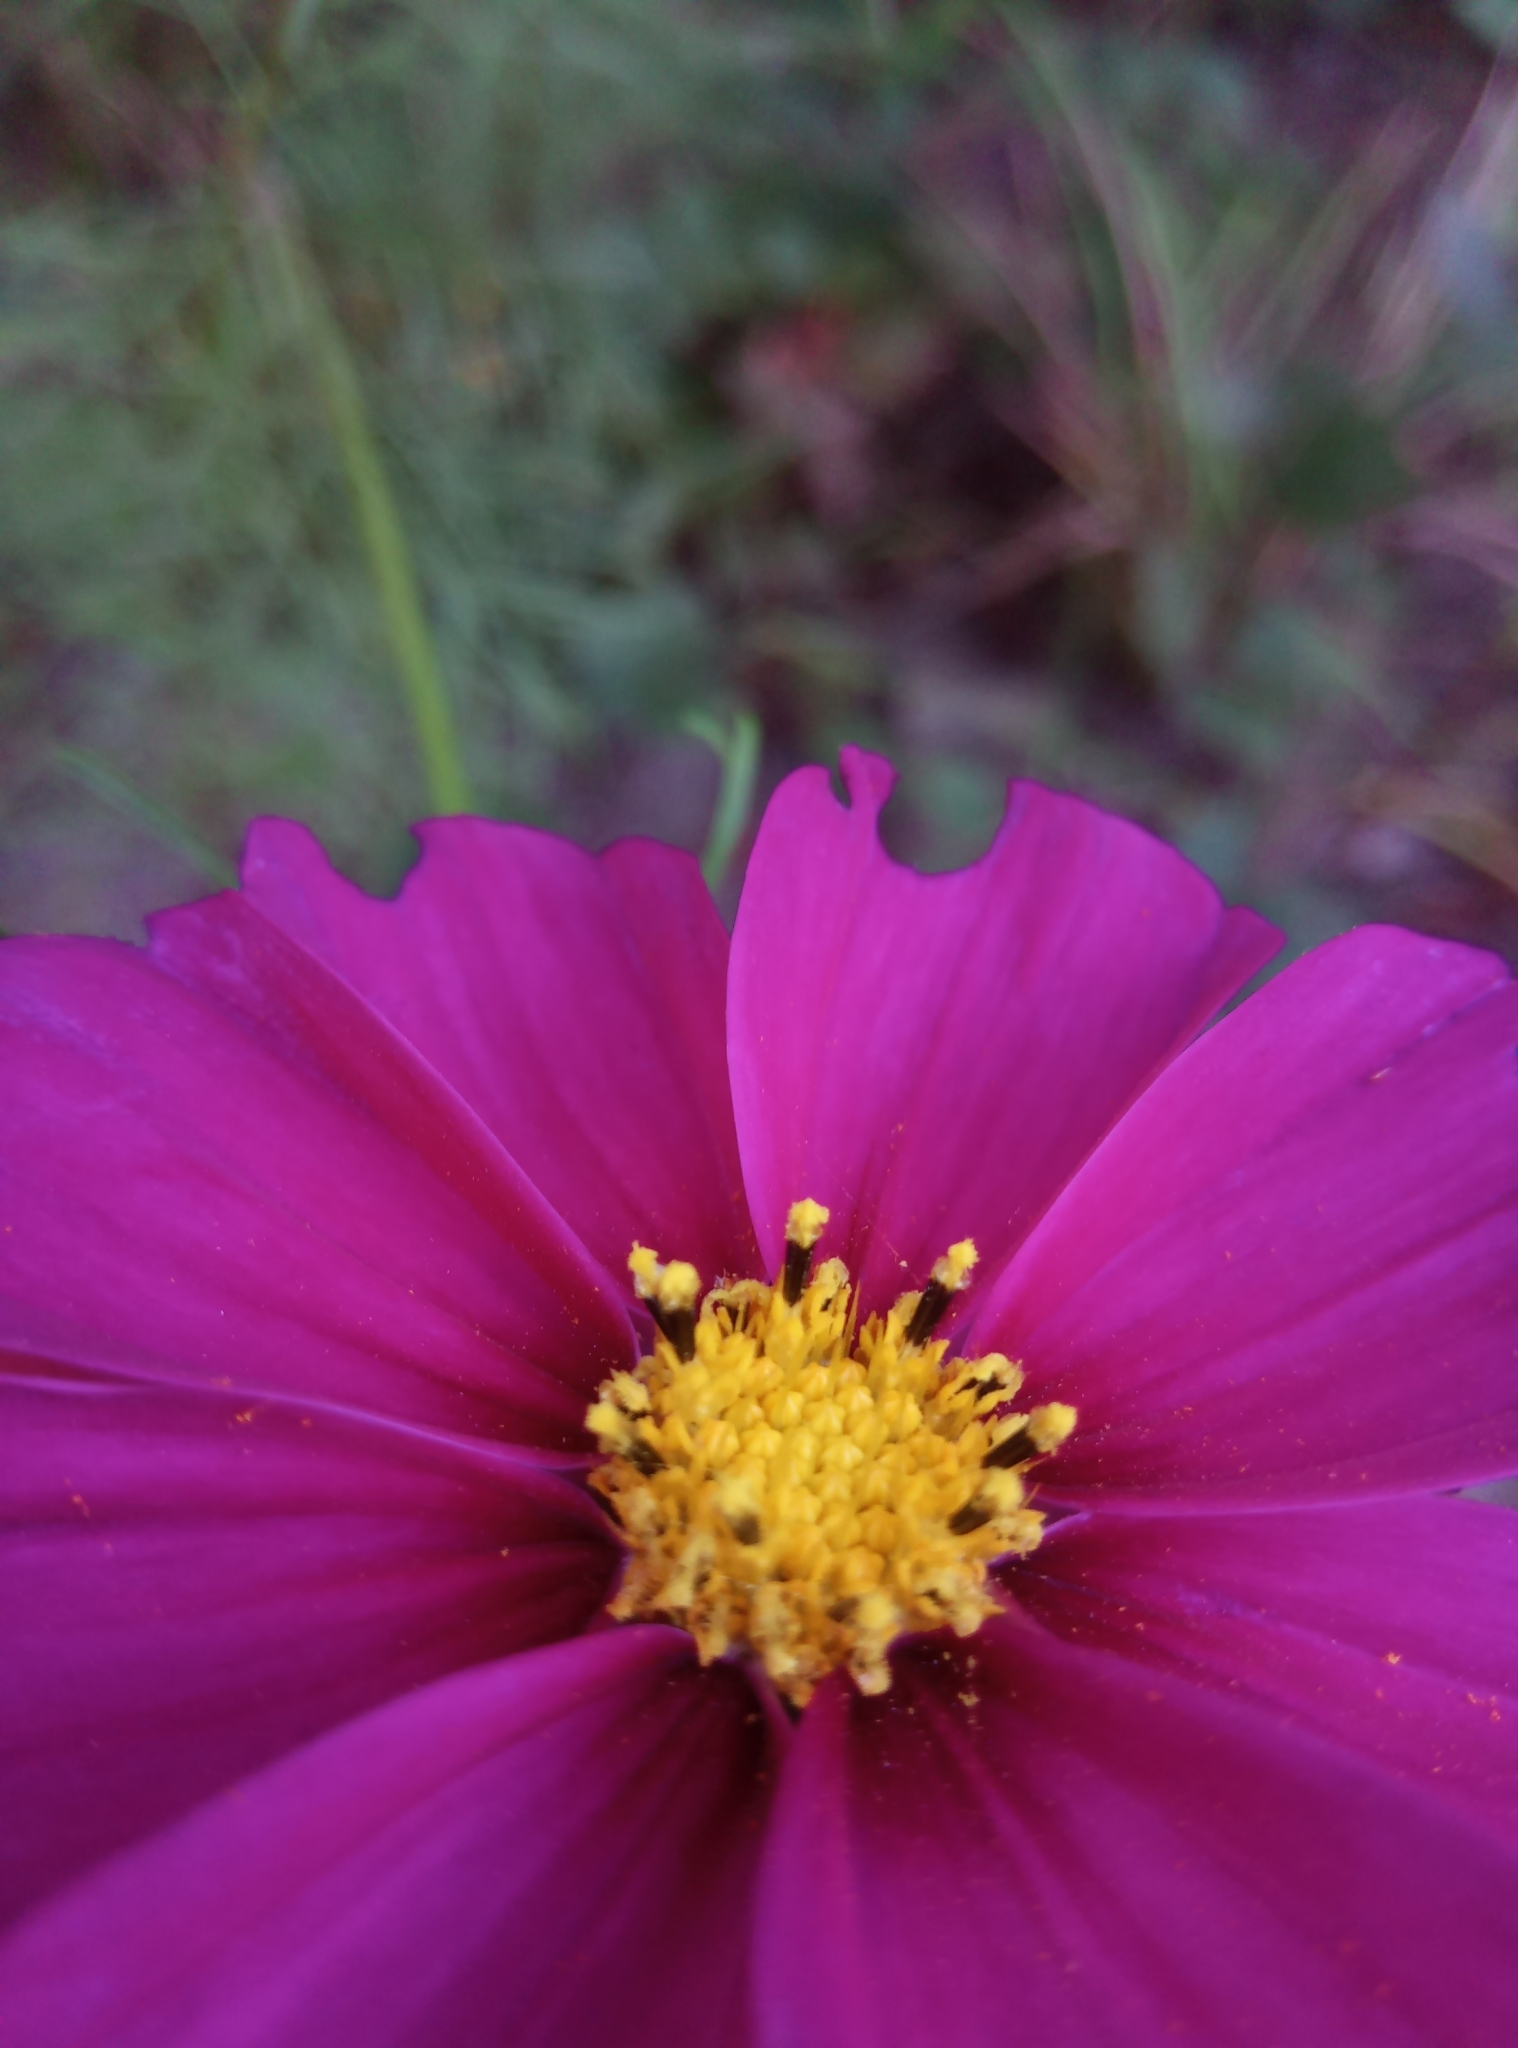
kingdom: Plantae
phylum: Tracheophyta
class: Magnoliopsida
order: Asterales
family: Asteraceae
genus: Cosmos
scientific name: Cosmos bipinnatus
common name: Garden cosmos
